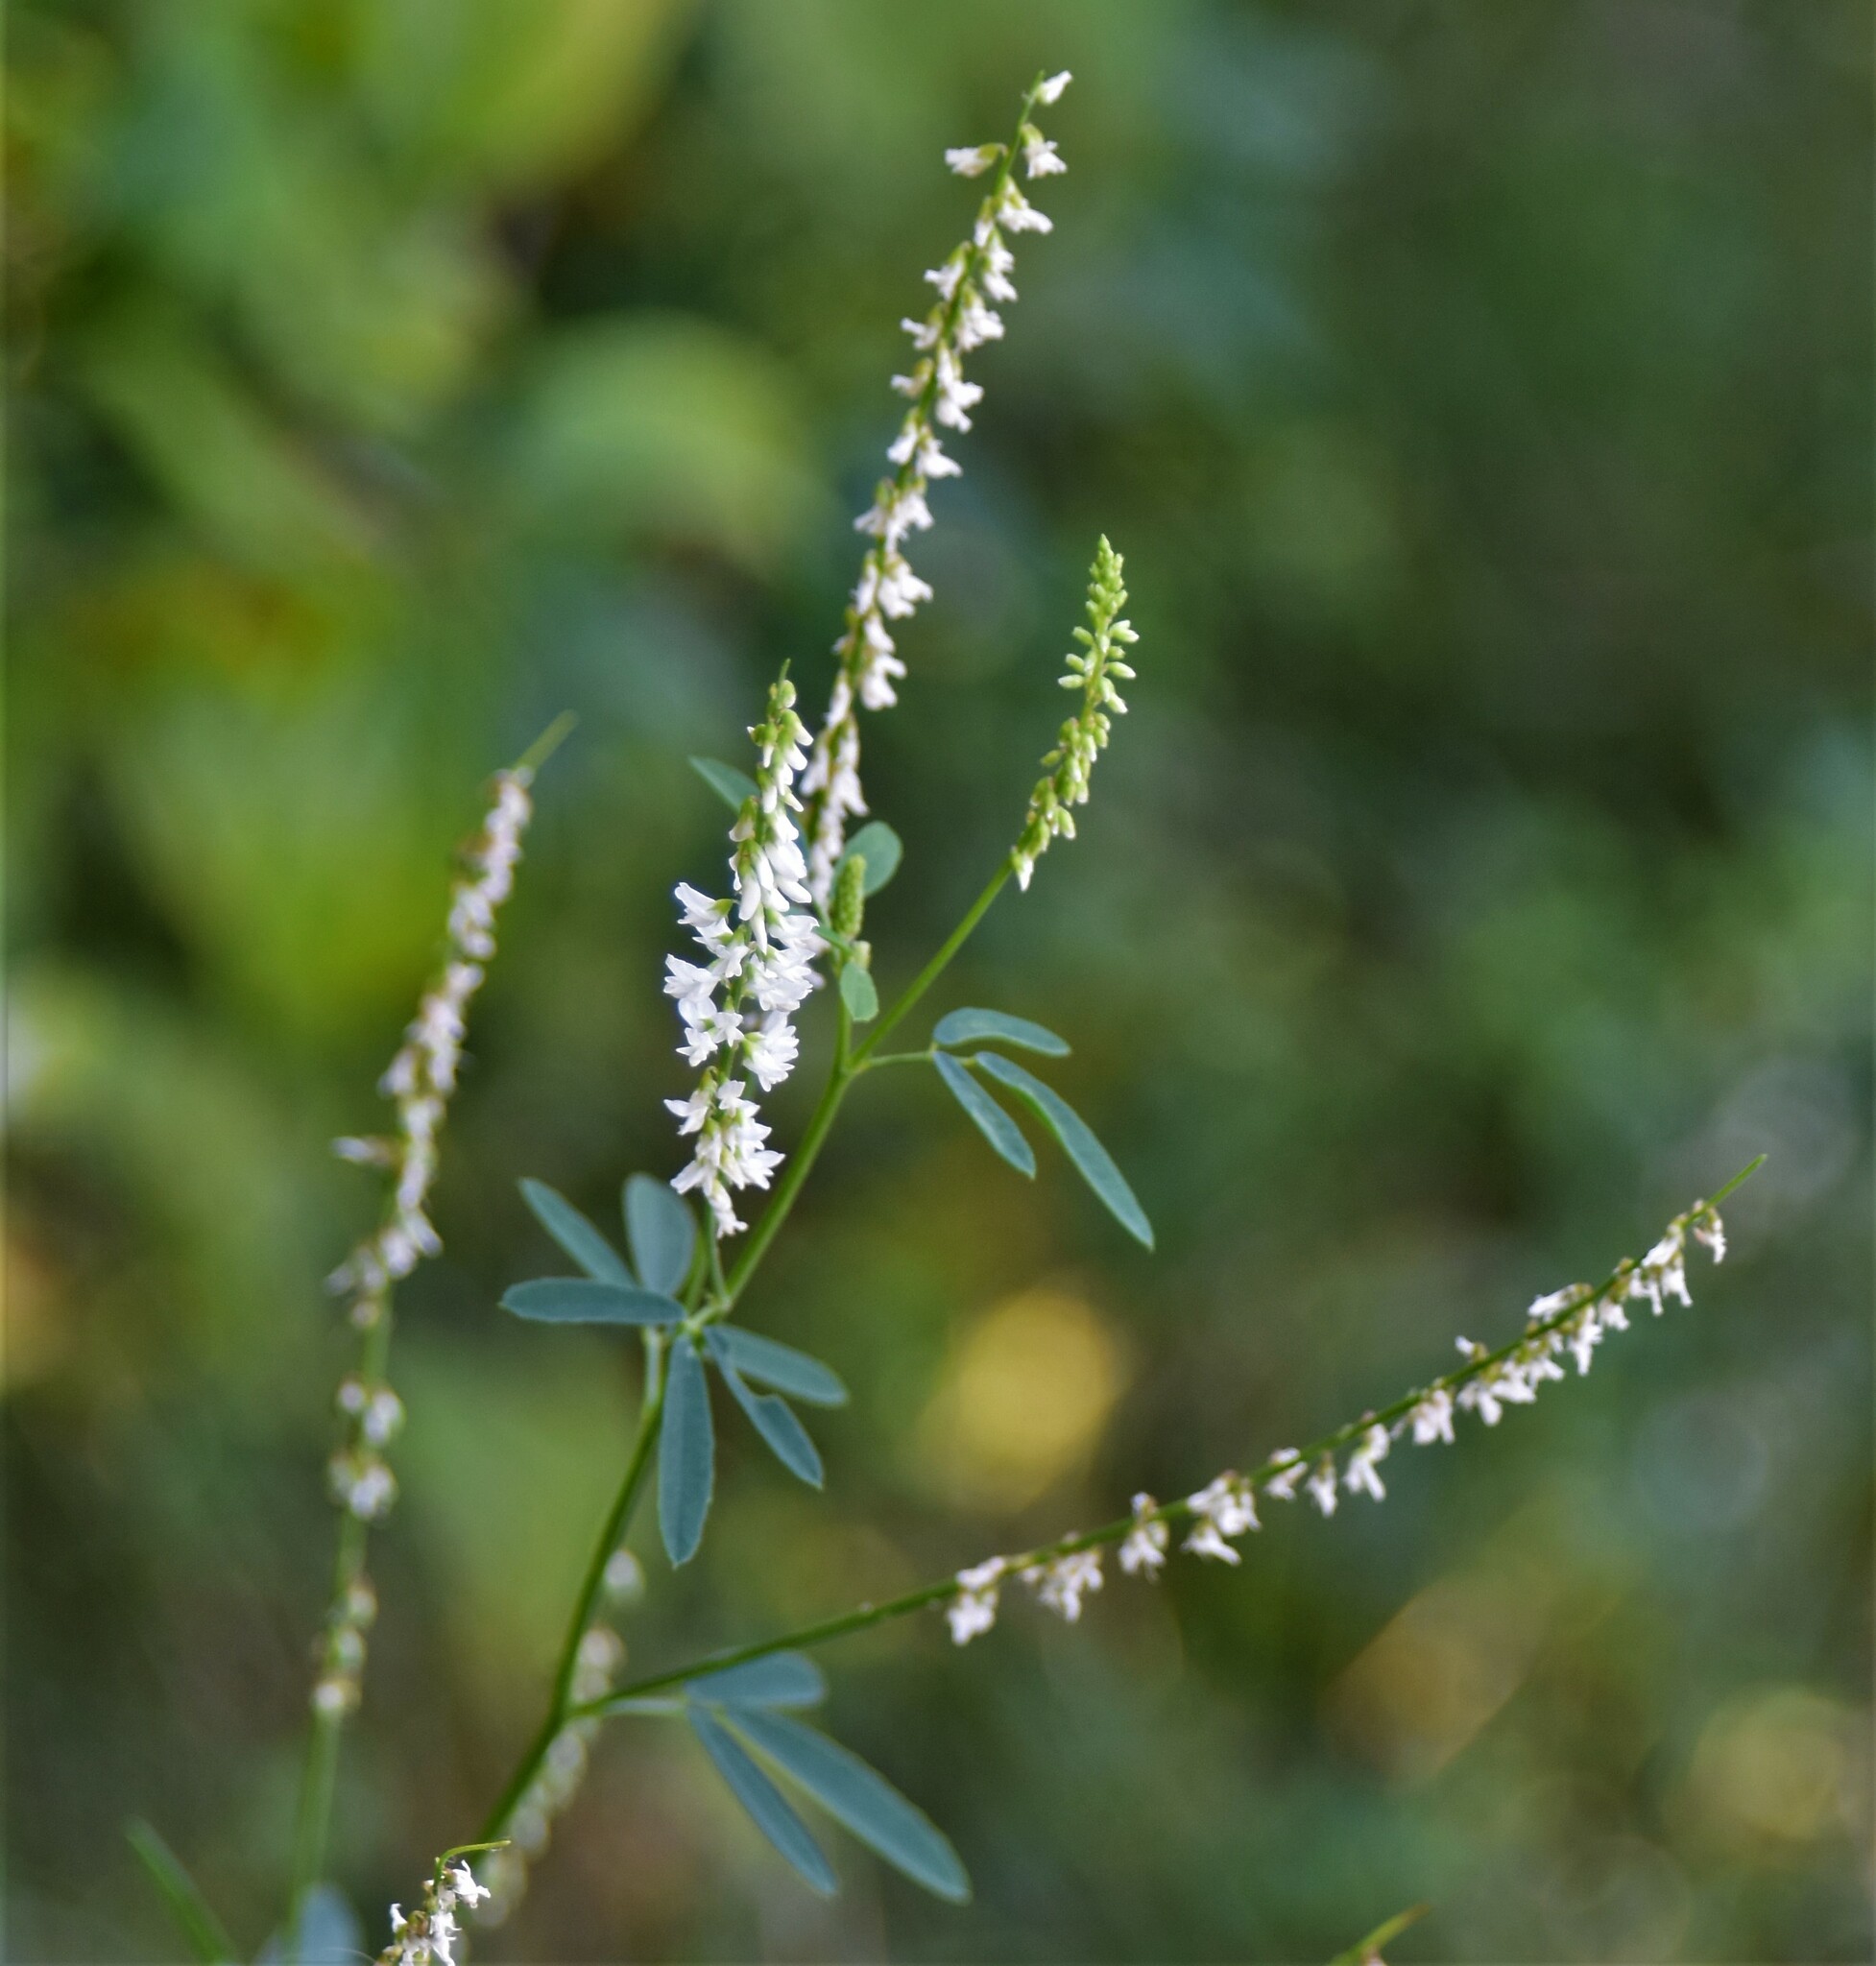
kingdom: Plantae
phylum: Tracheophyta
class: Magnoliopsida
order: Fabales
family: Fabaceae
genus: Melilotus
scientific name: Melilotus albus
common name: White melilot
